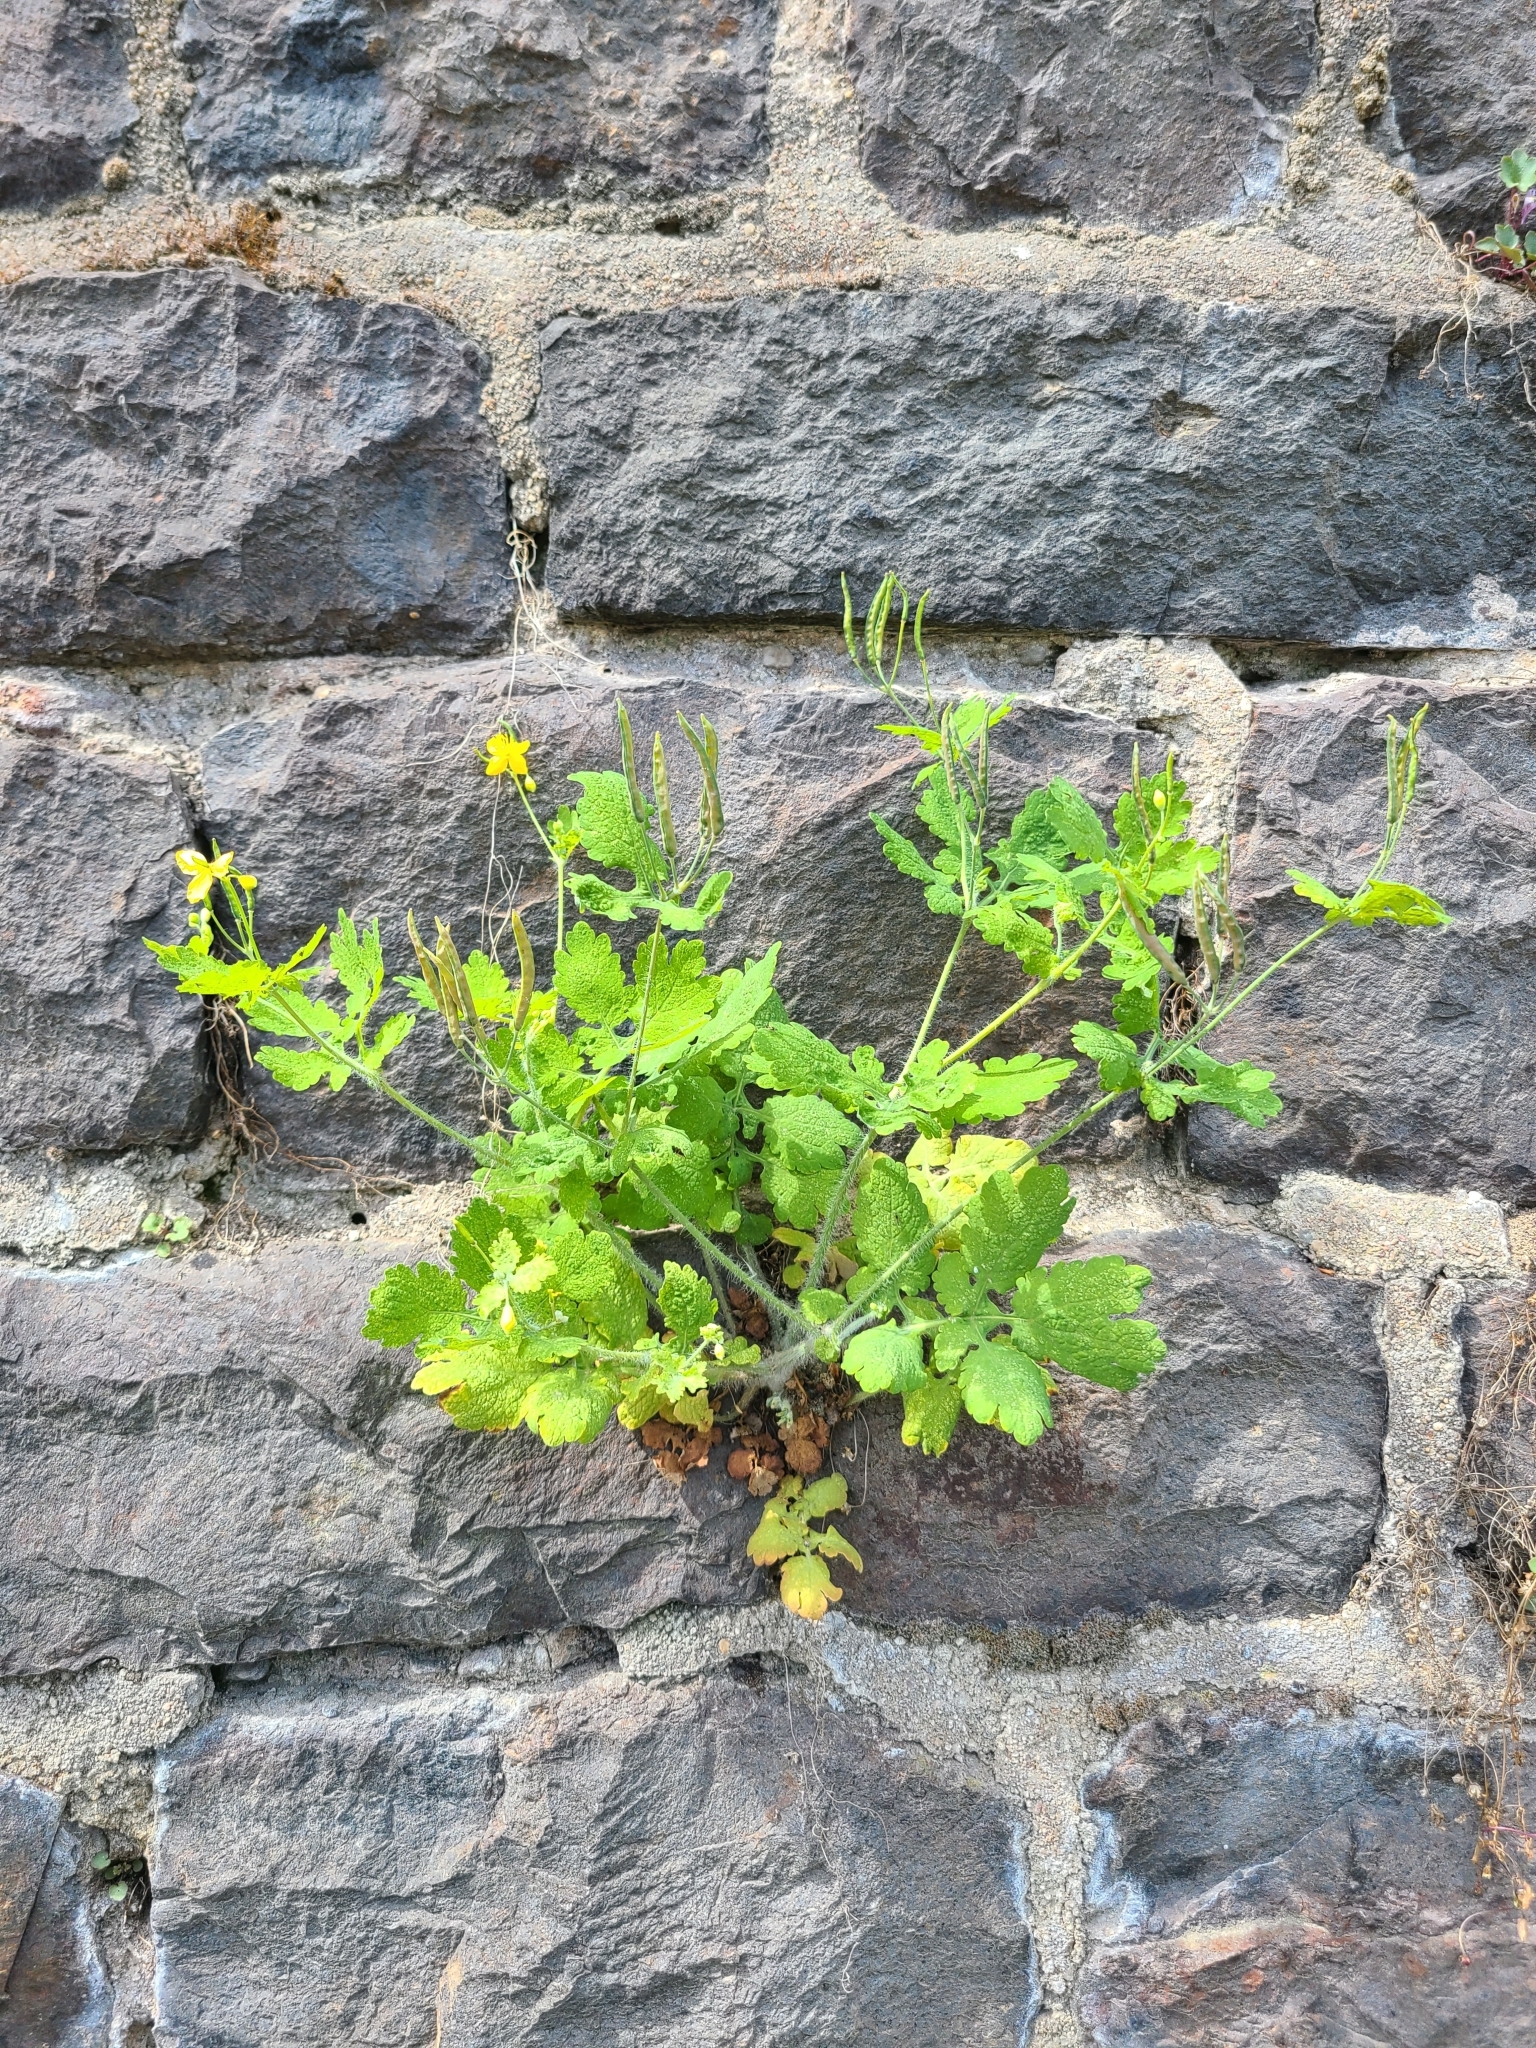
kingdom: Plantae
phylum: Tracheophyta
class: Magnoliopsida
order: Ranunculales
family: Papaveraceae
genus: Chelidonium
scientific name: Chelidonium majus
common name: Greater celandine
